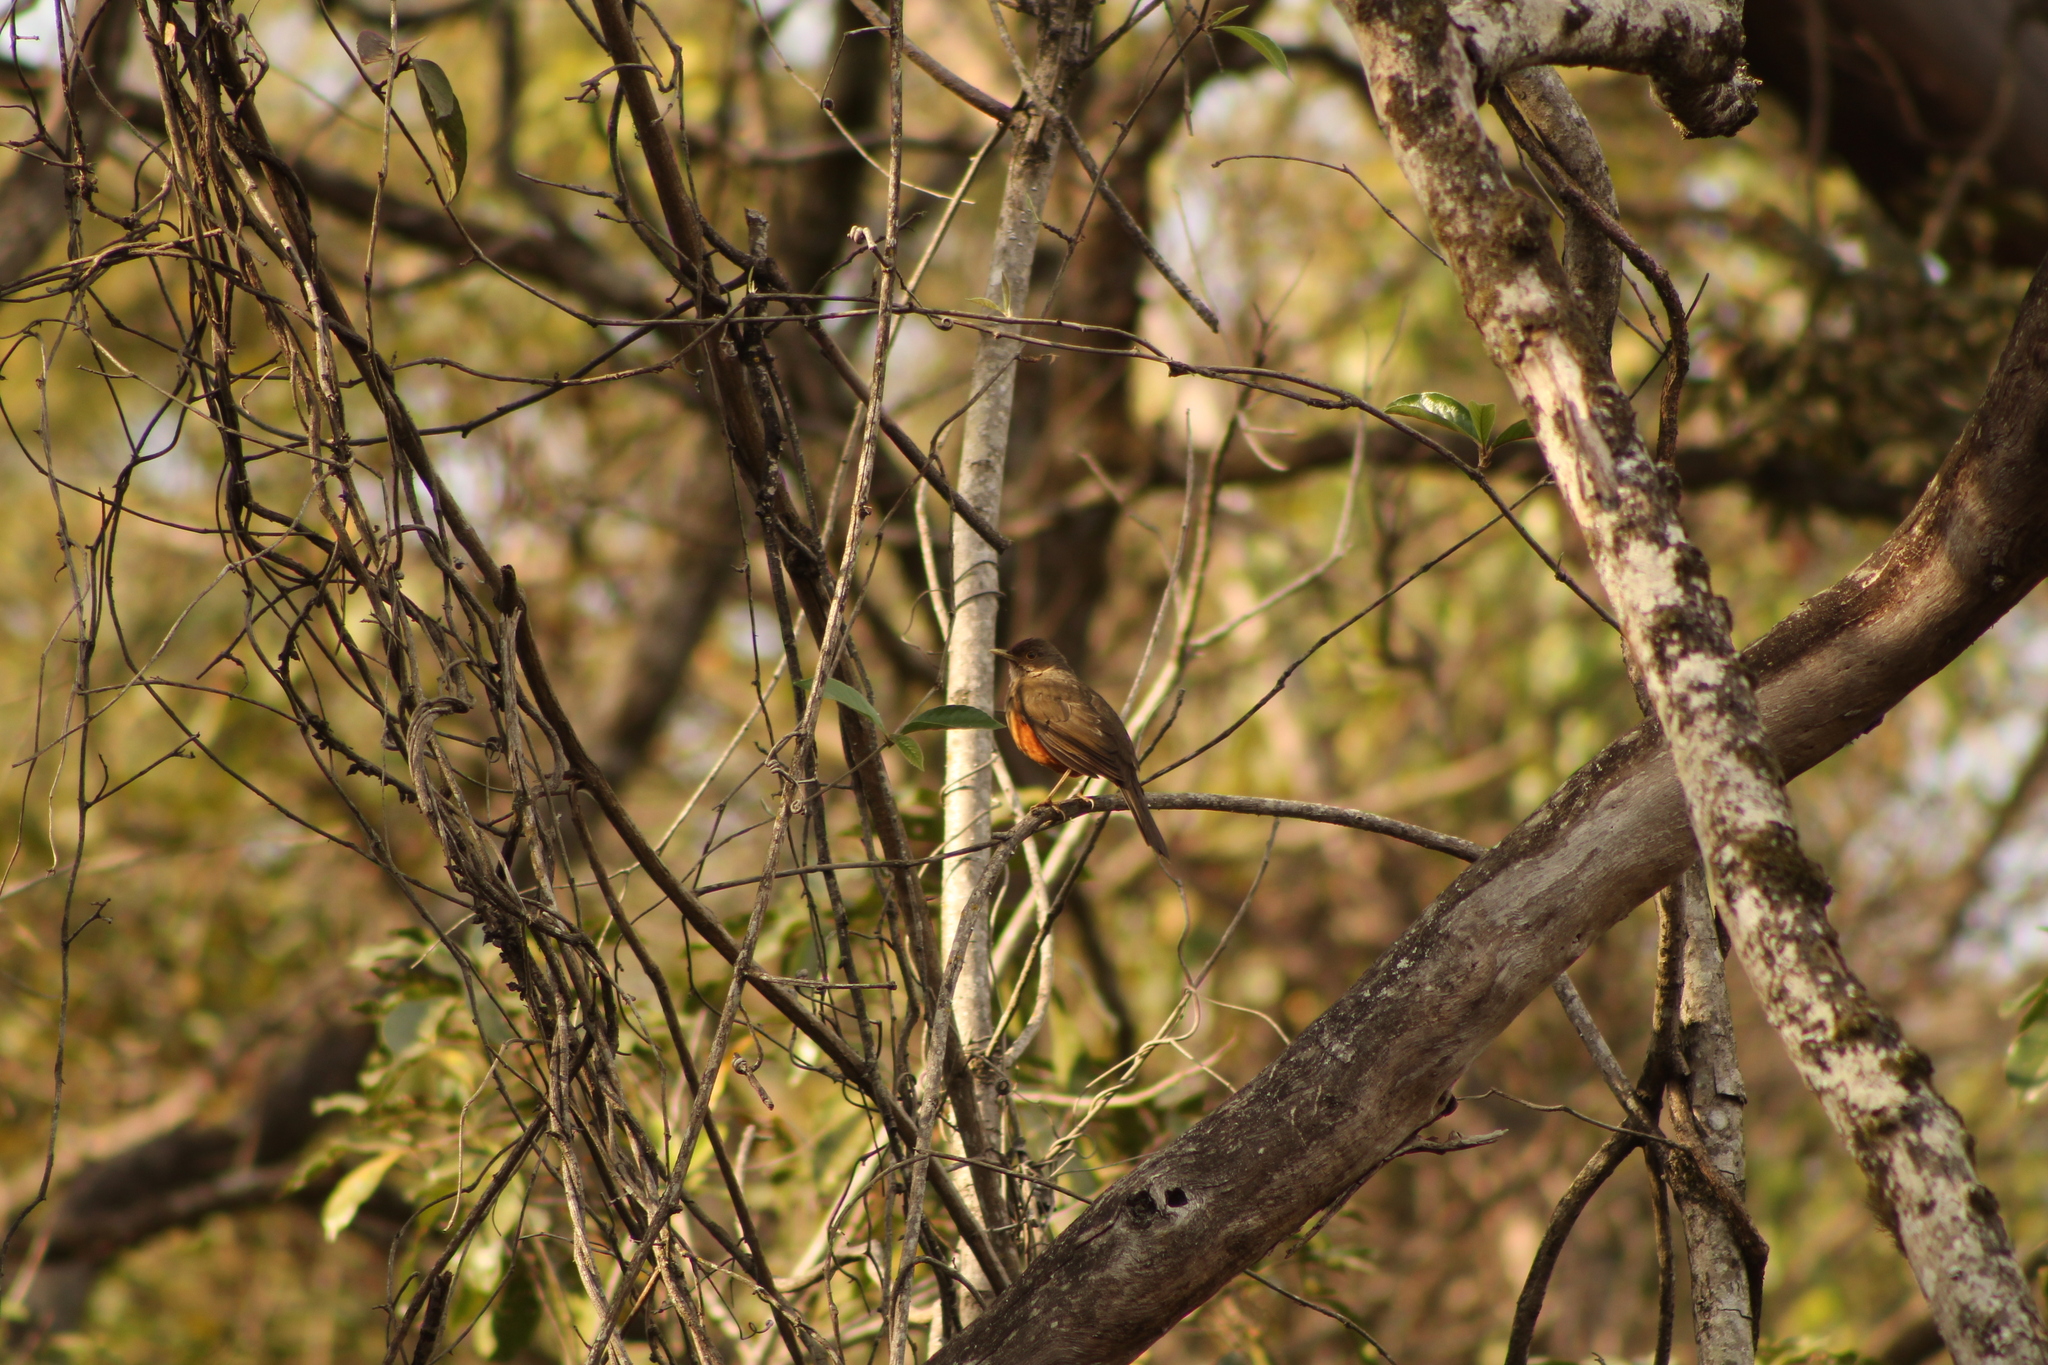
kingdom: Animalia
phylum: Chordata
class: Aves
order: Passeriformes
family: Turdidae
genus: Turdus
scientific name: Turdus rufiventris
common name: Rufous-bellied thrush
